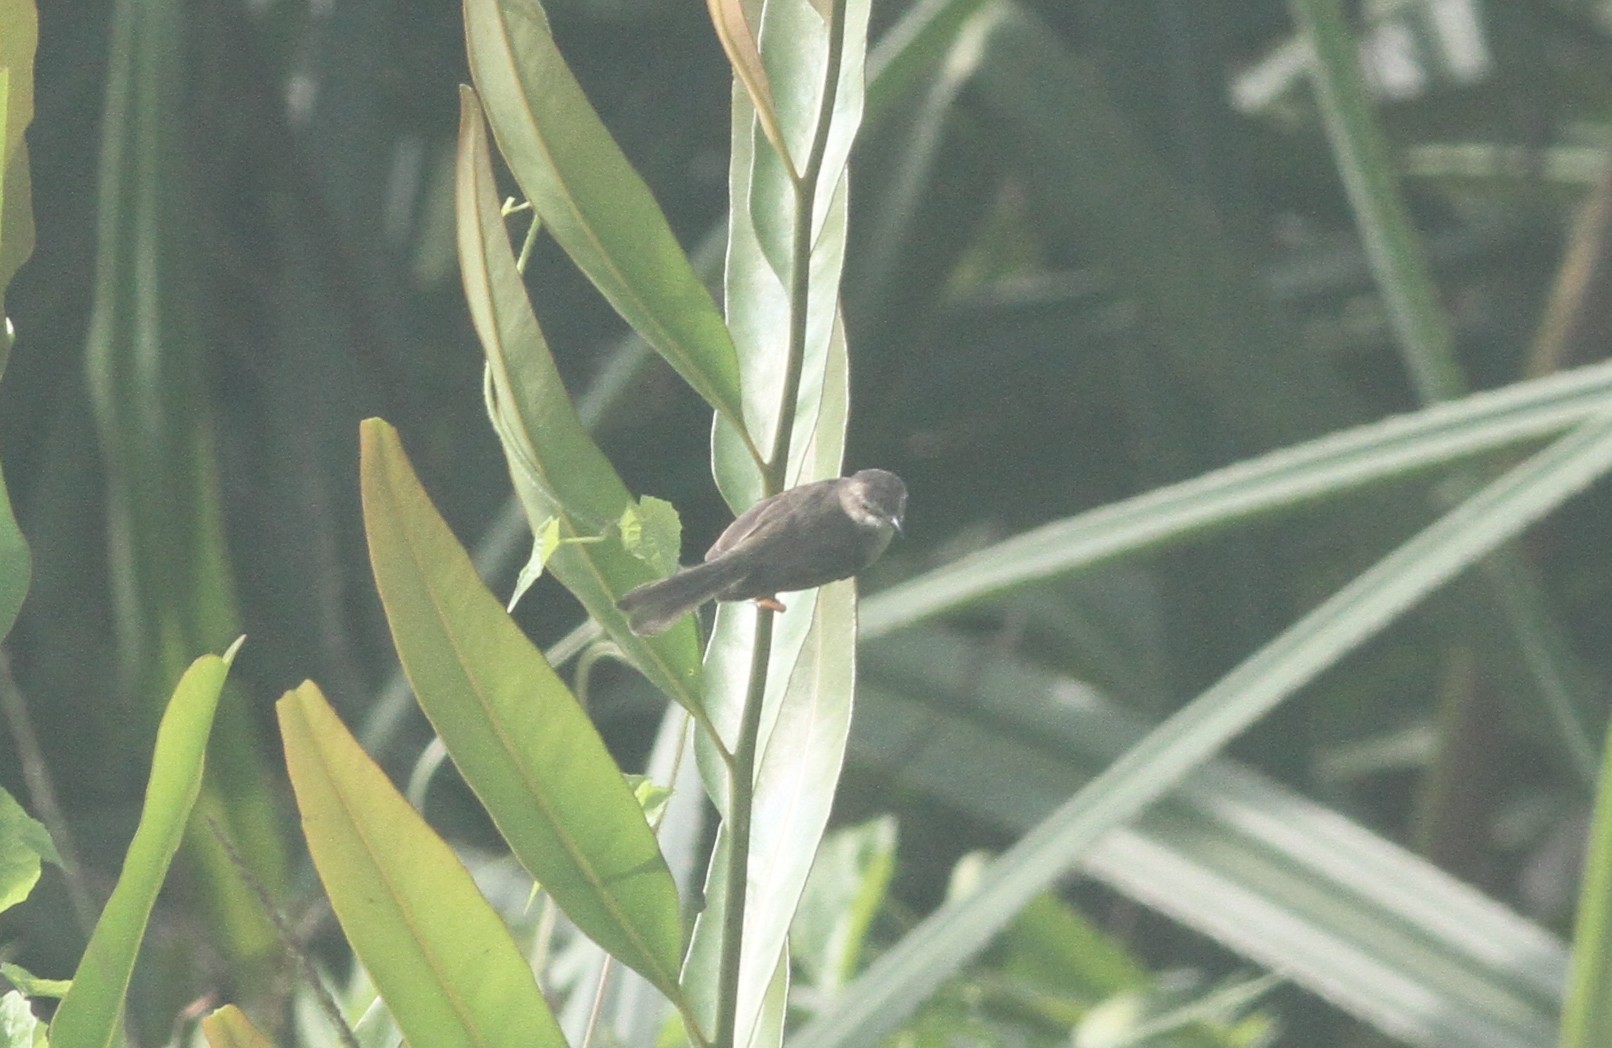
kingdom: Animalia
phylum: Chordata
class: Aves
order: Passeriformes
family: Cisticolidae
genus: Prinia
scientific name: Prinia inornata
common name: Plain prinia
